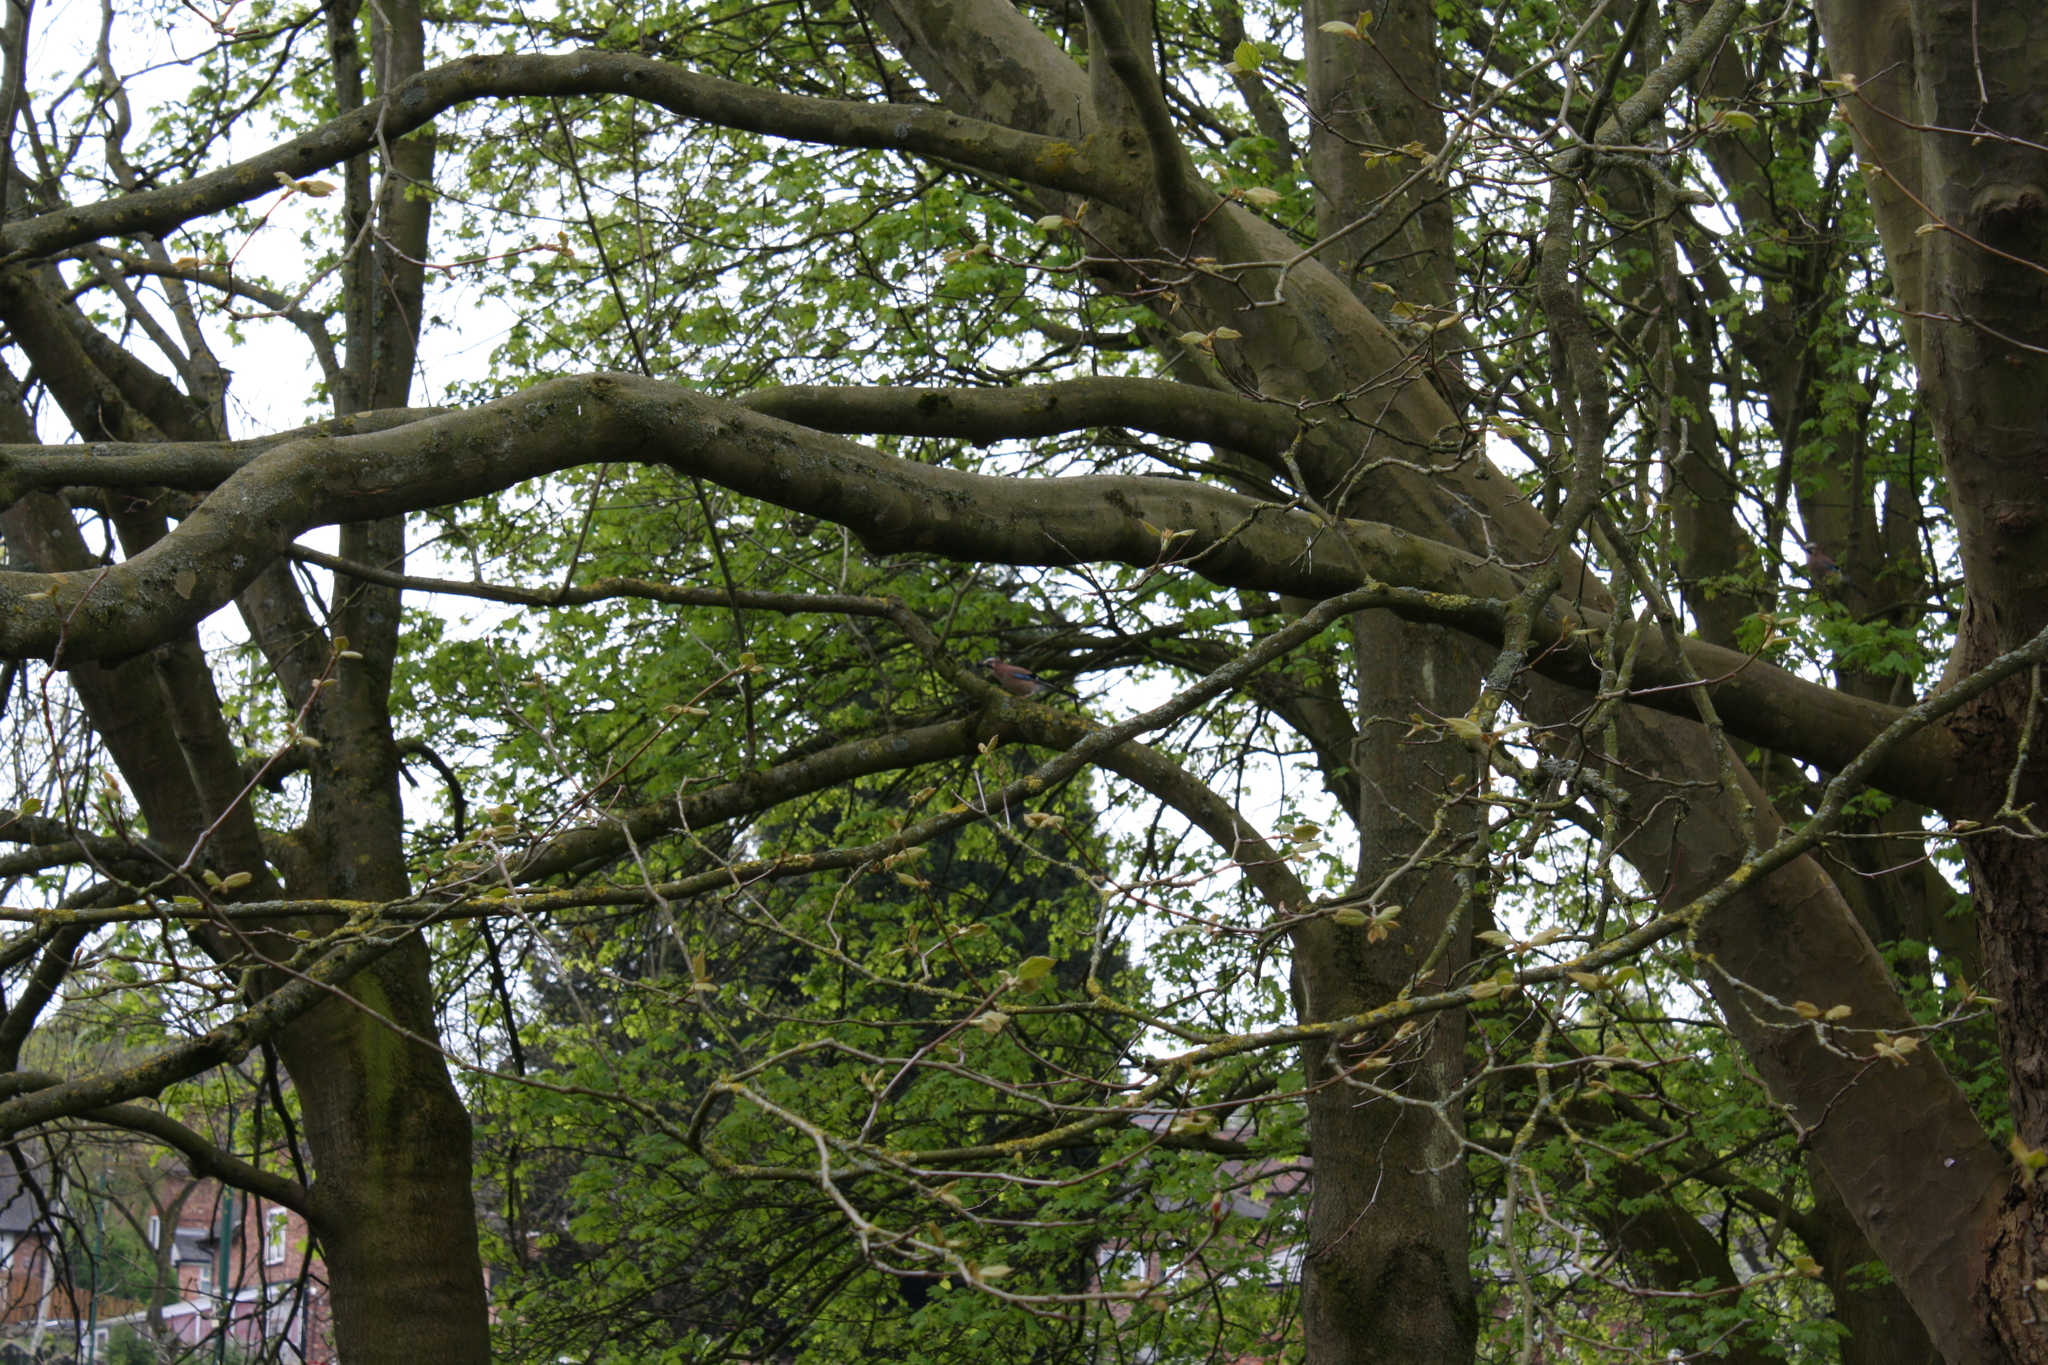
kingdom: Animalia
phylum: Chordata
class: Aves
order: Passeriformes
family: Corvidae
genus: Garrulus
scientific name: Garrulus glandarius
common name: Eurasian jay
